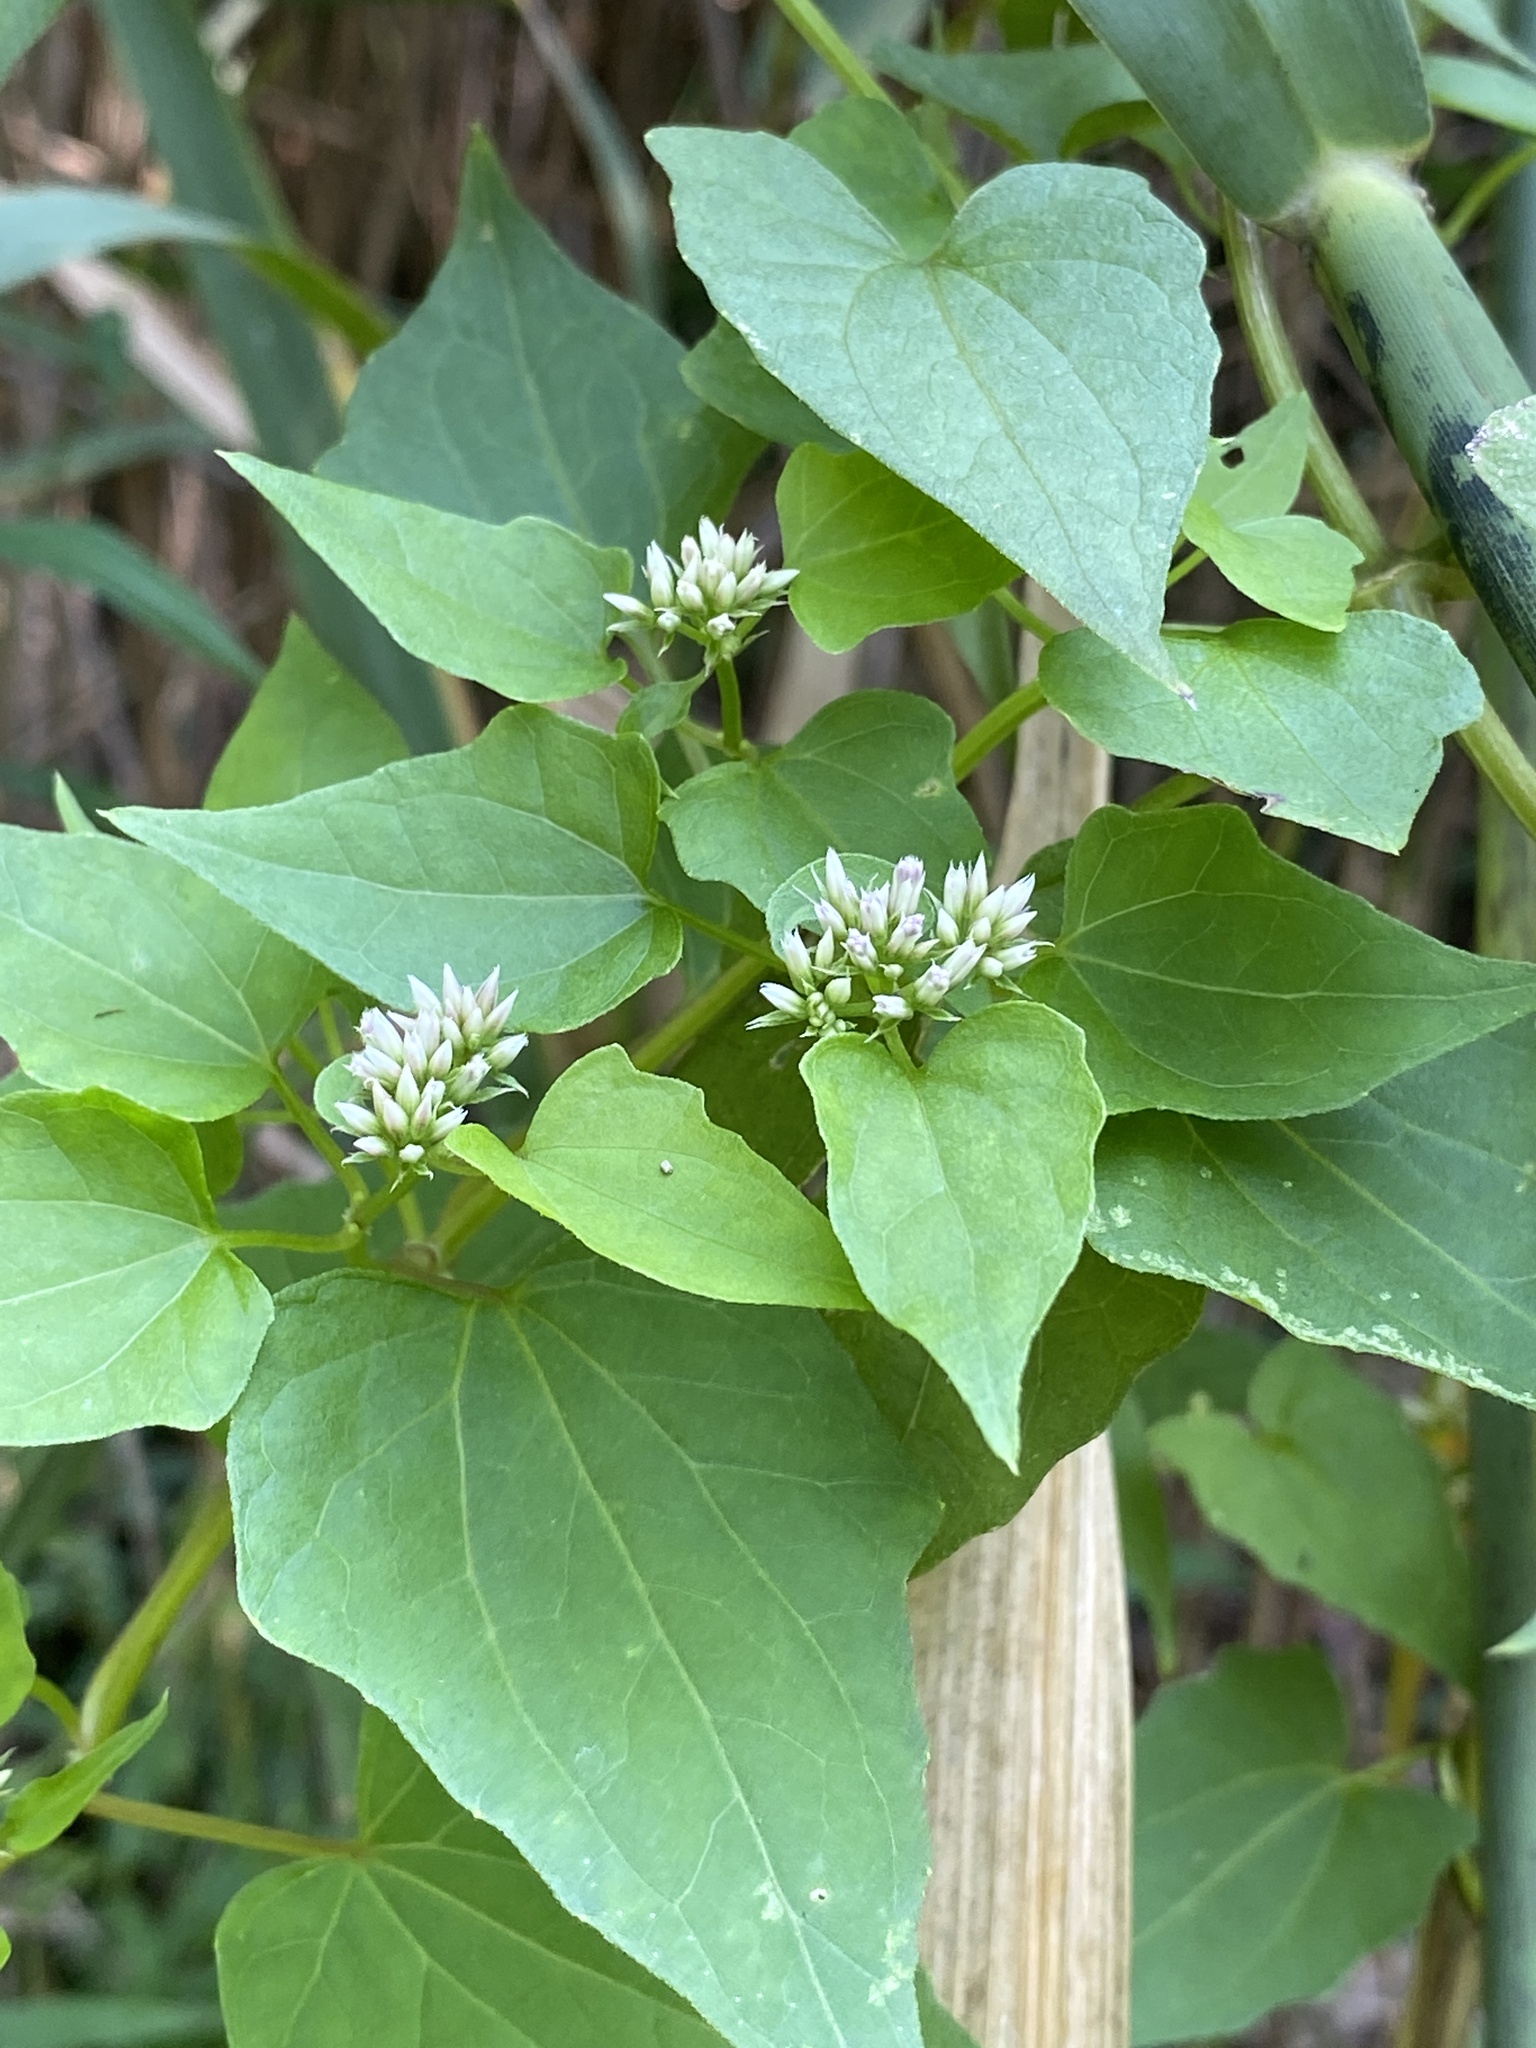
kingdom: Plantae
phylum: Tracheophyta
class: Magnoliopsida
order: Asterales
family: Asteraceae
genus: Mikania
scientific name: Mikania scandens
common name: Climbing hempvine
